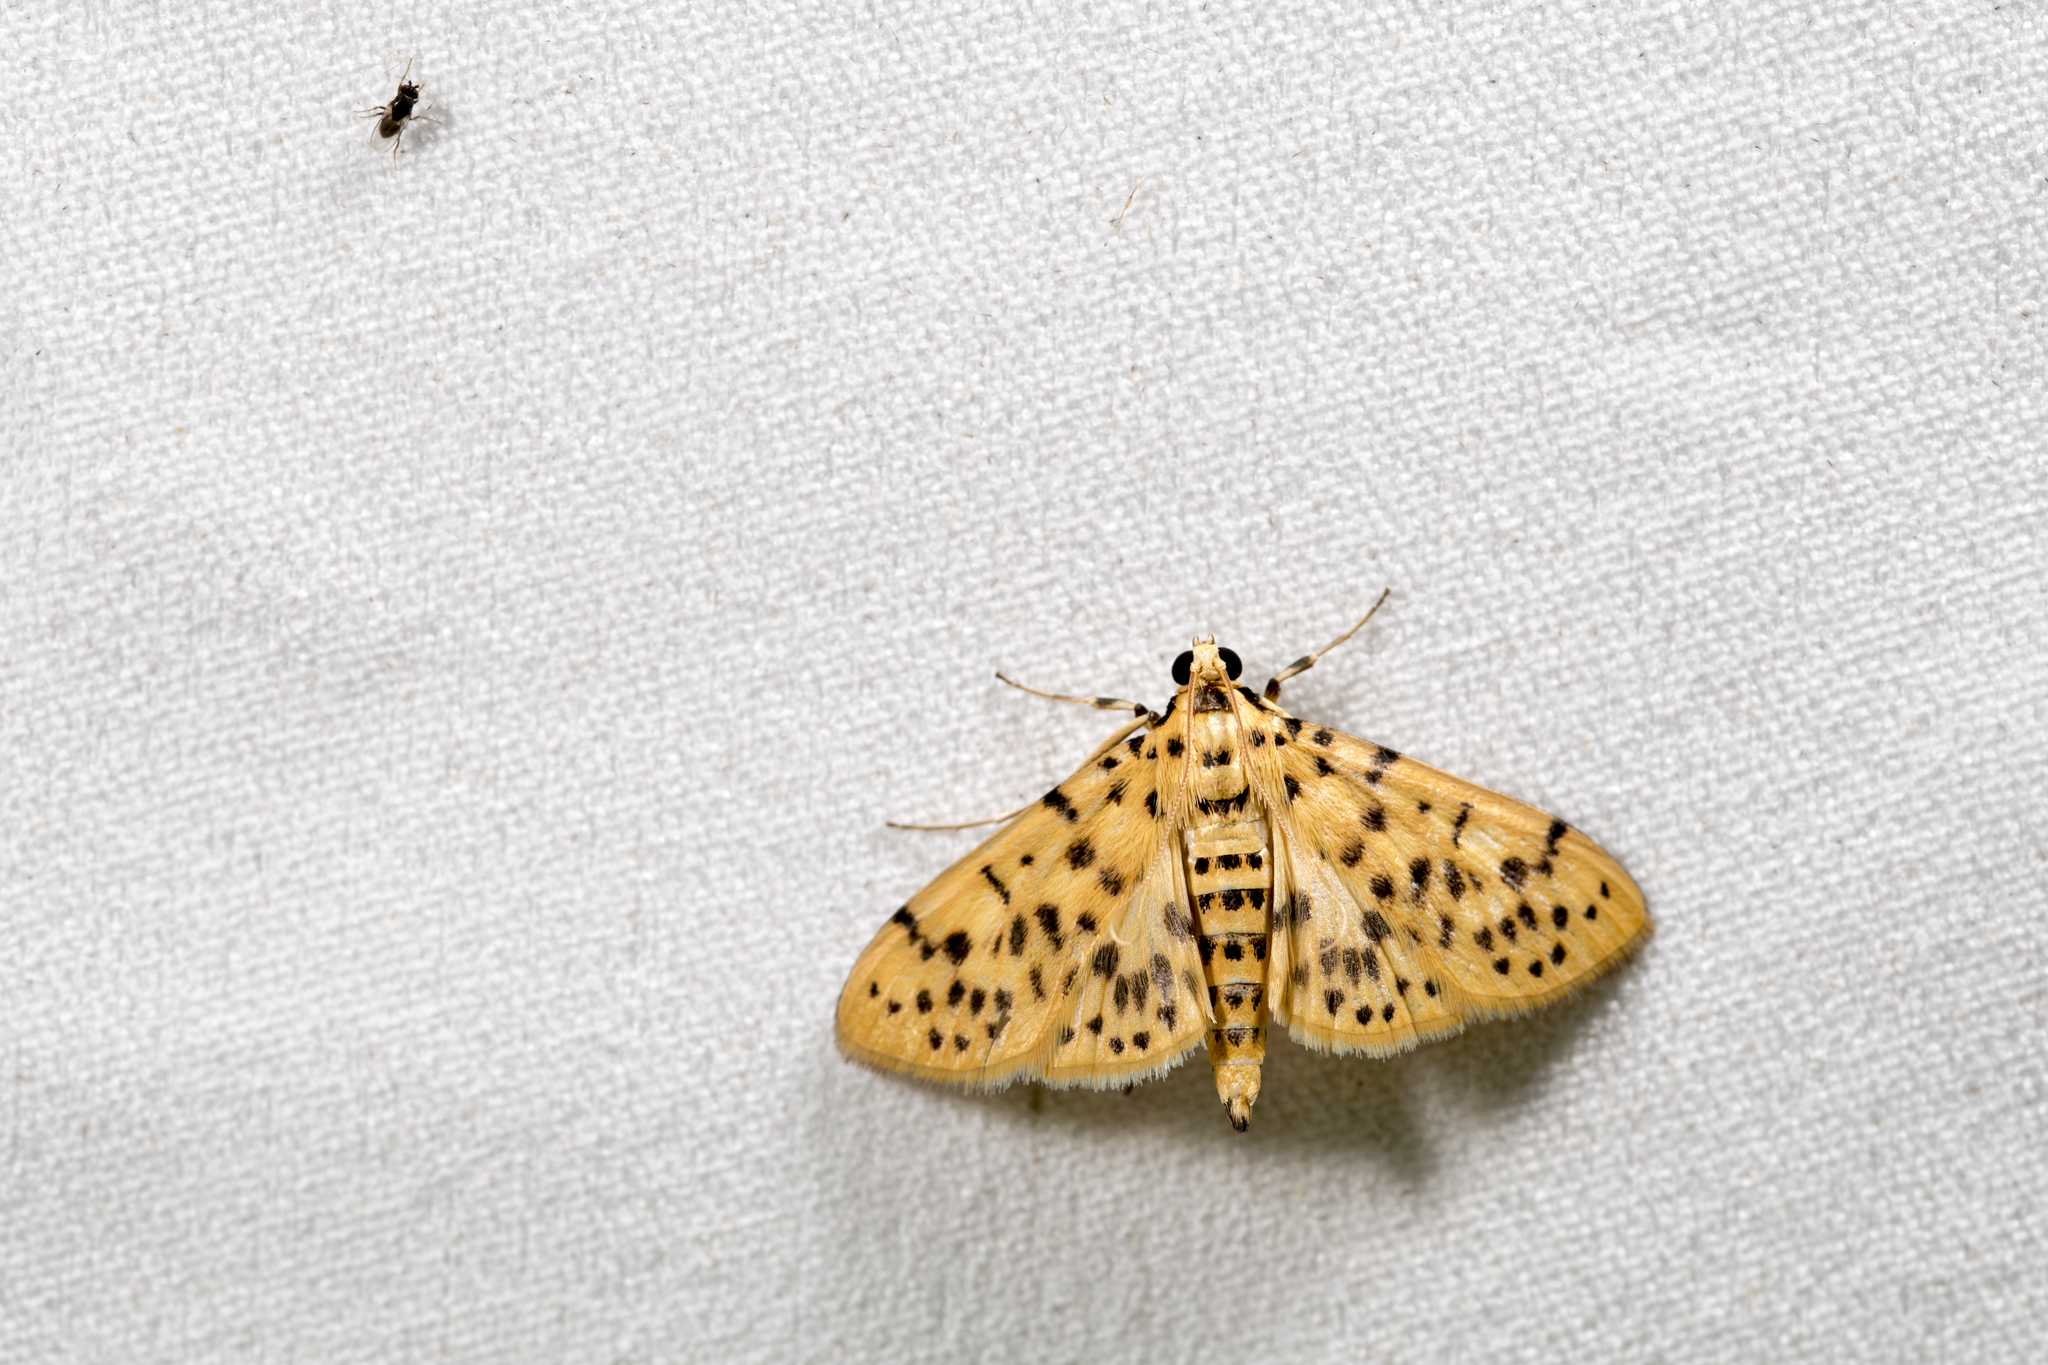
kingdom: Animalia
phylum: Arthropoda
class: Insecta
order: Lepidoptera
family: Crambidae
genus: Conogethes
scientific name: Conogethes pinicolalis
